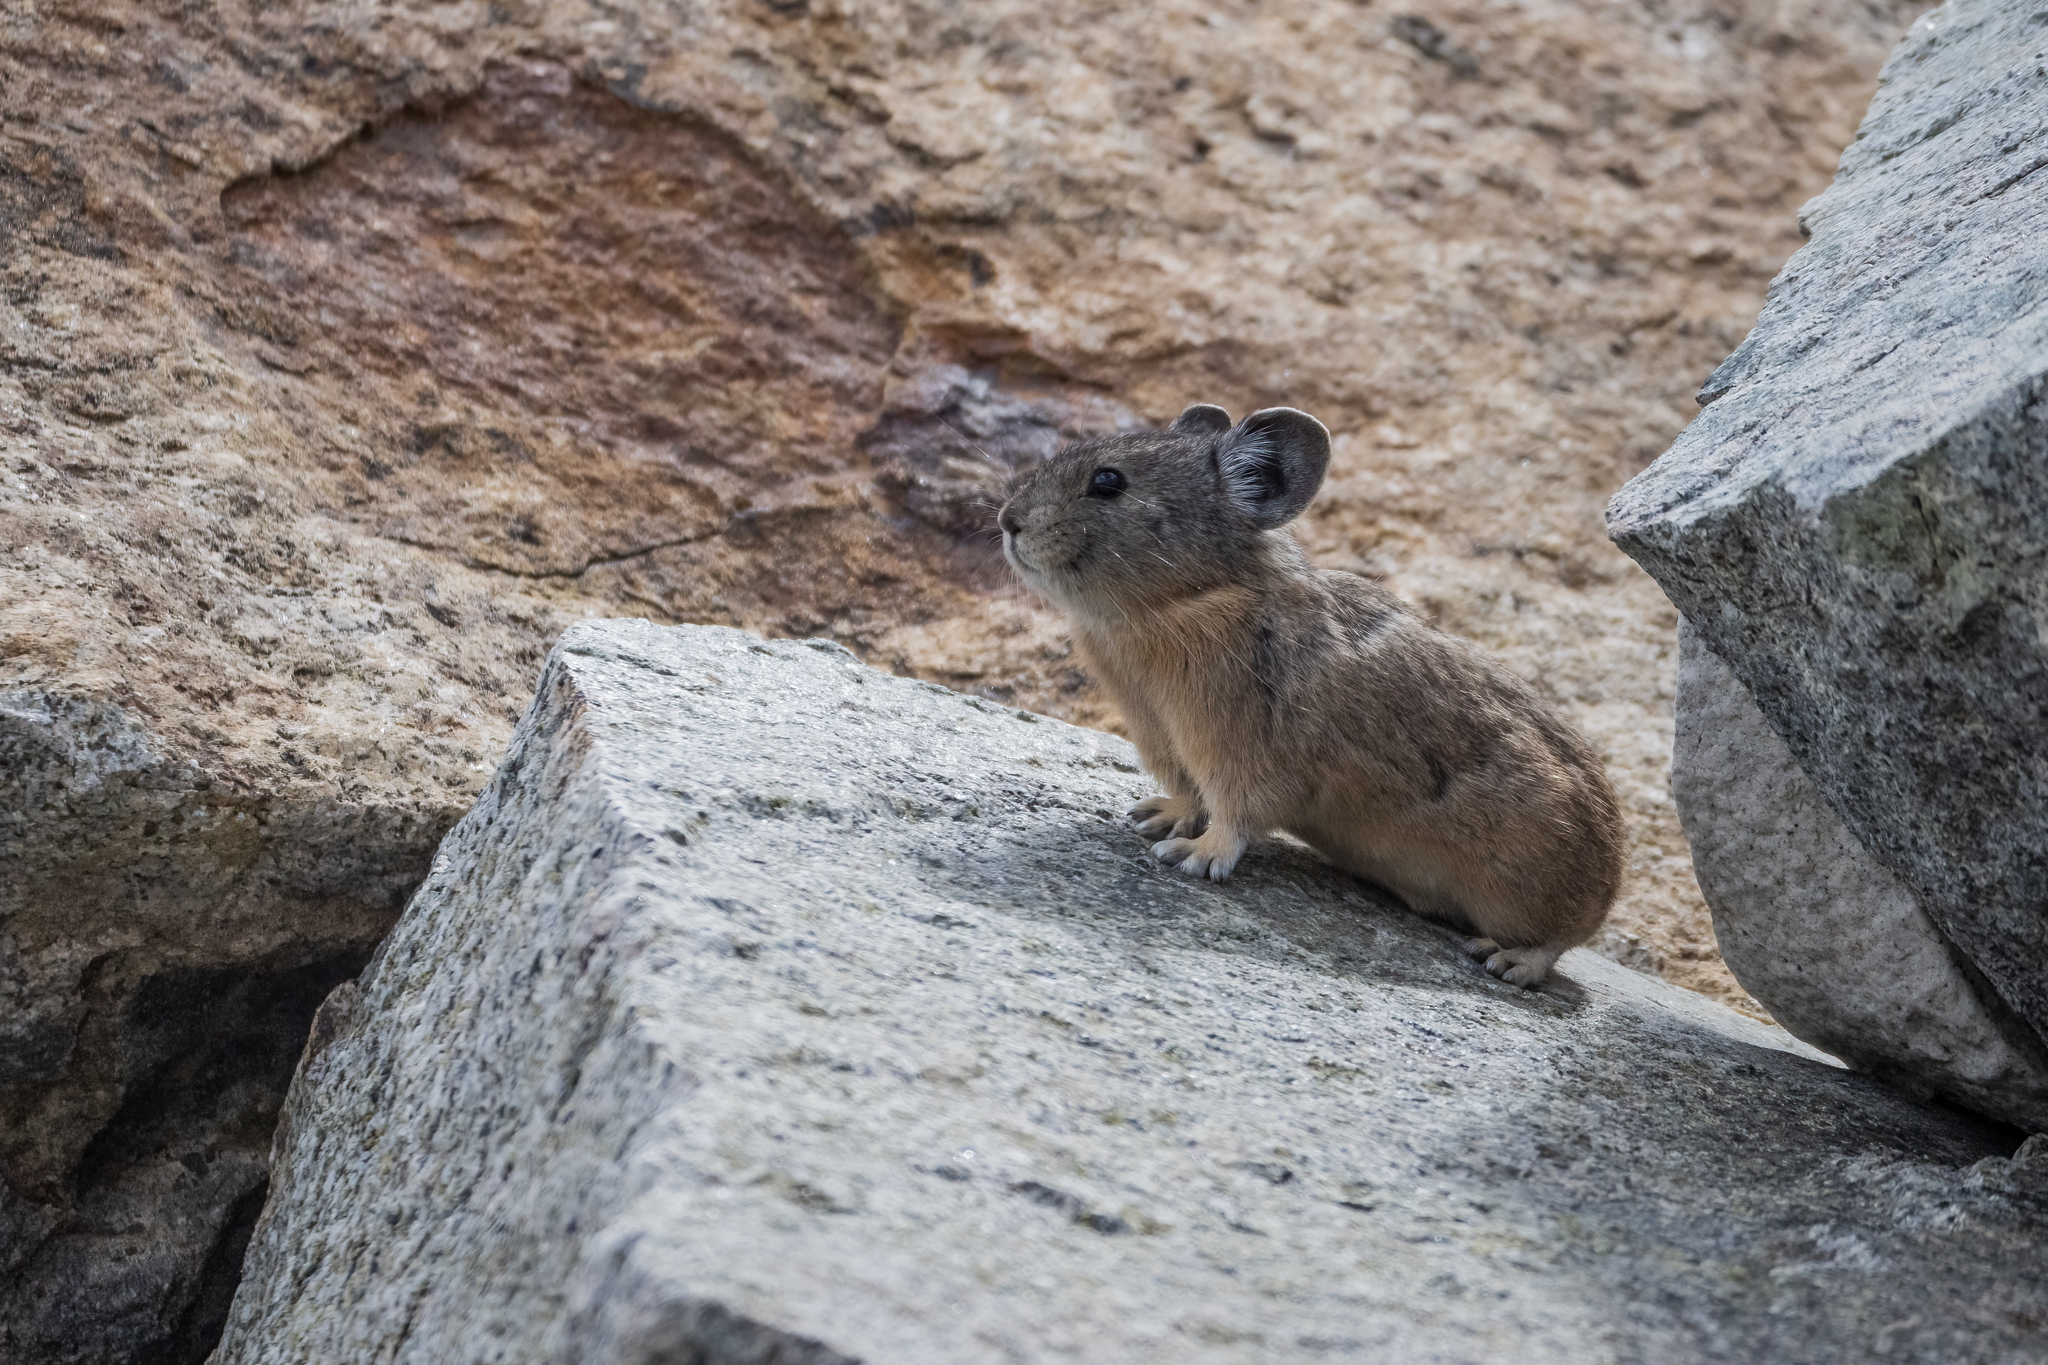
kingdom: Animalia
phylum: Chordata
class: Mammalia
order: Lagomorpha
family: Ochotonidae
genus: Ochotona
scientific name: Ochotona princeps
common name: American pika
